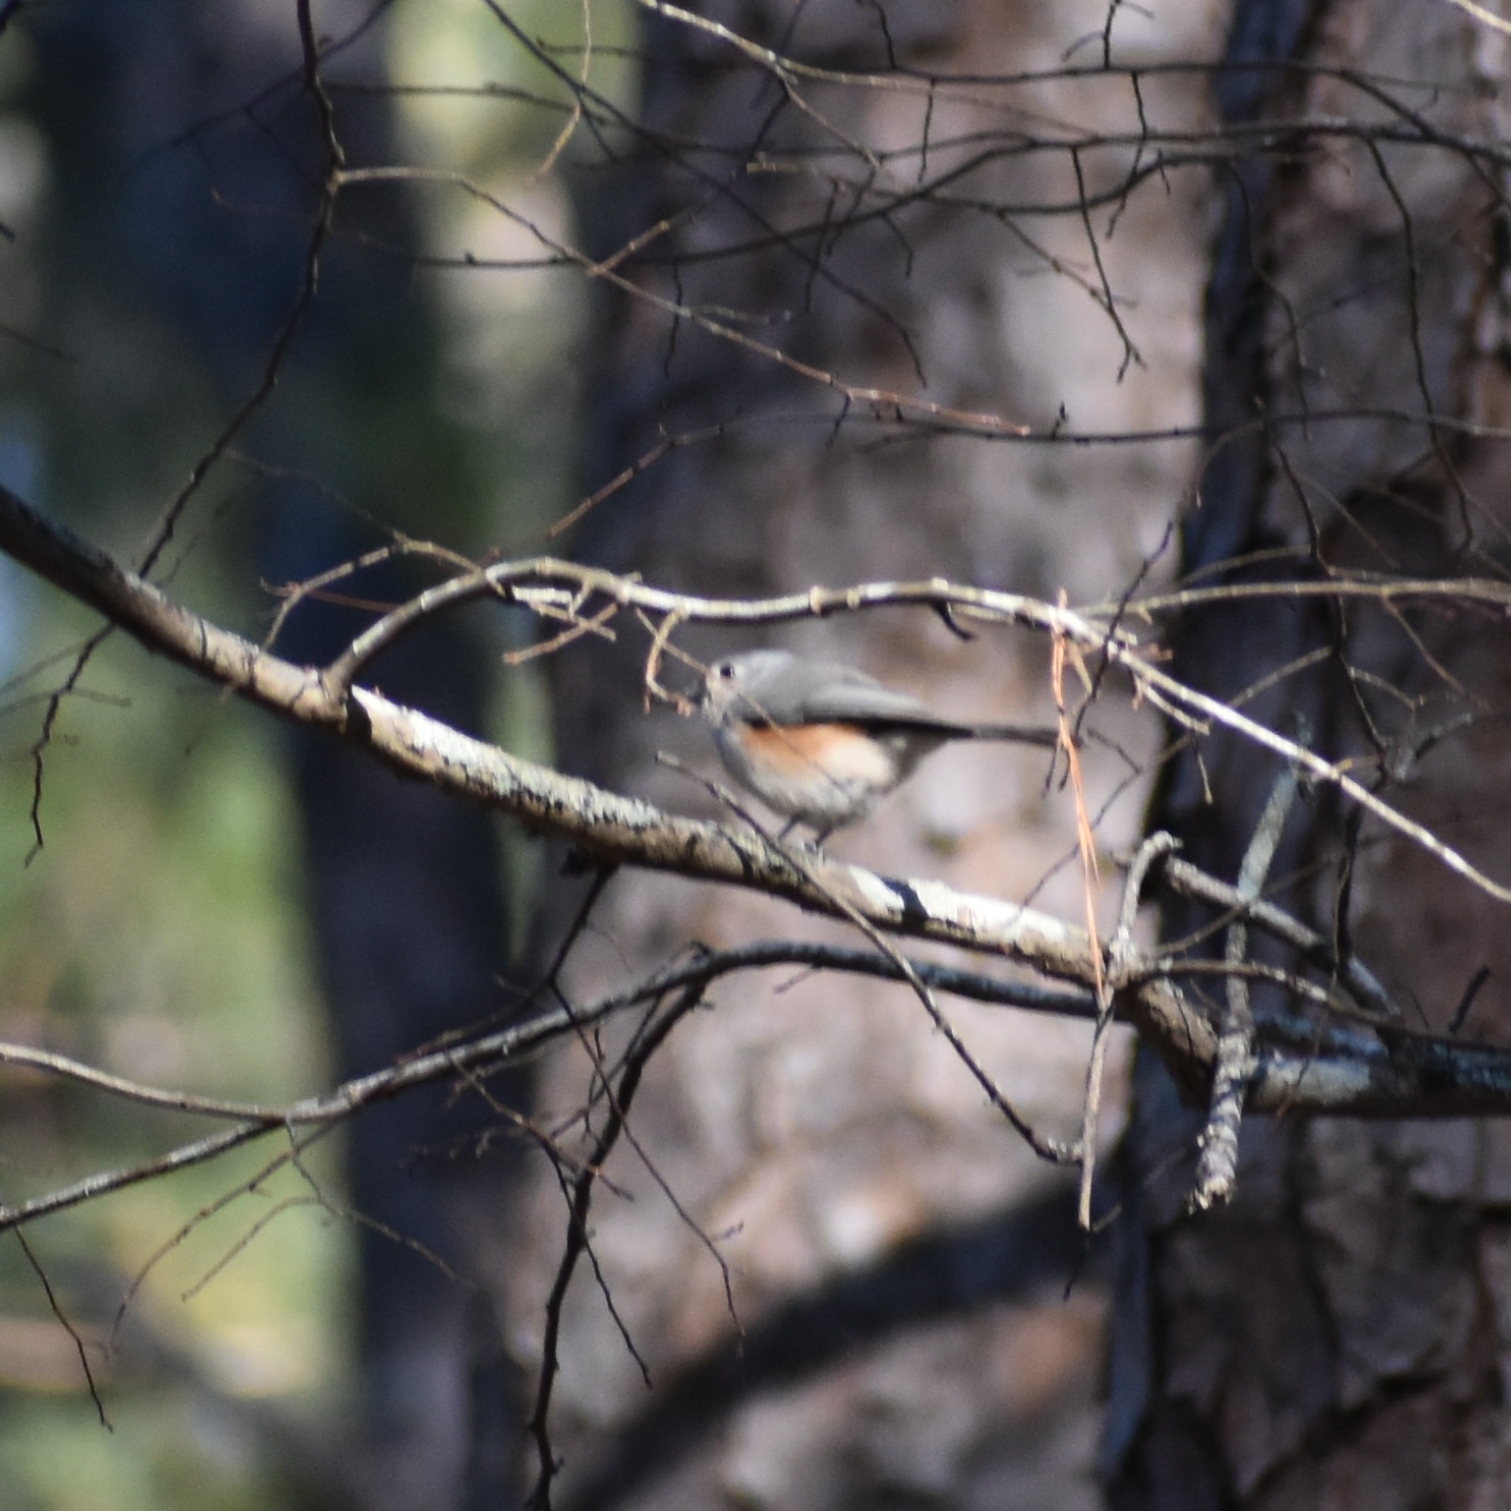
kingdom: Animalia
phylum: Chordata
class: Aves
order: Passeriformes
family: Paridae
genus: Baeolophus
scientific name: Baeolophus bicolor
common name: Tufted titmouse
